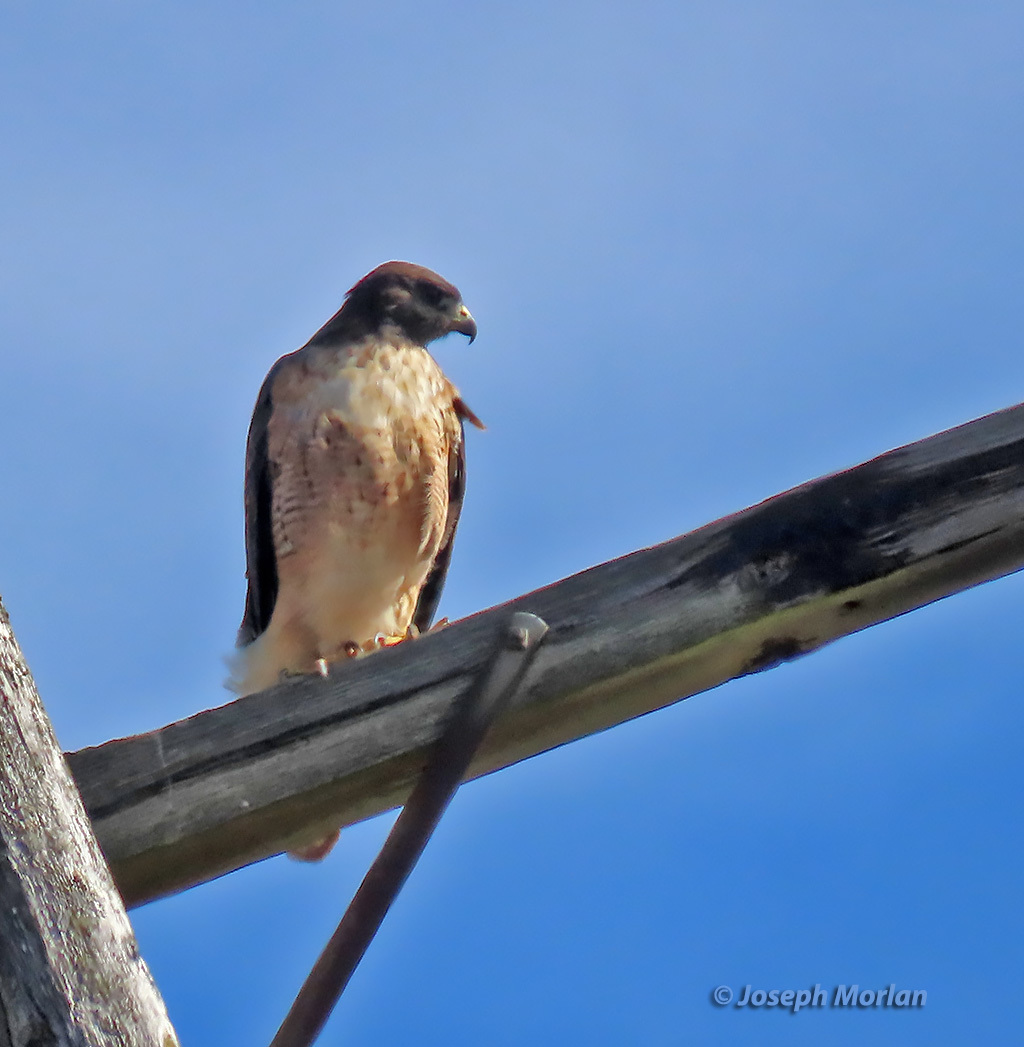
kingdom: Animalia
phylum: Chordata
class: Aves
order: Accipitriformes
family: Accipitridae
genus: Buteo
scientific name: Buteo jamaicensis
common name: Red-tailed hawk
